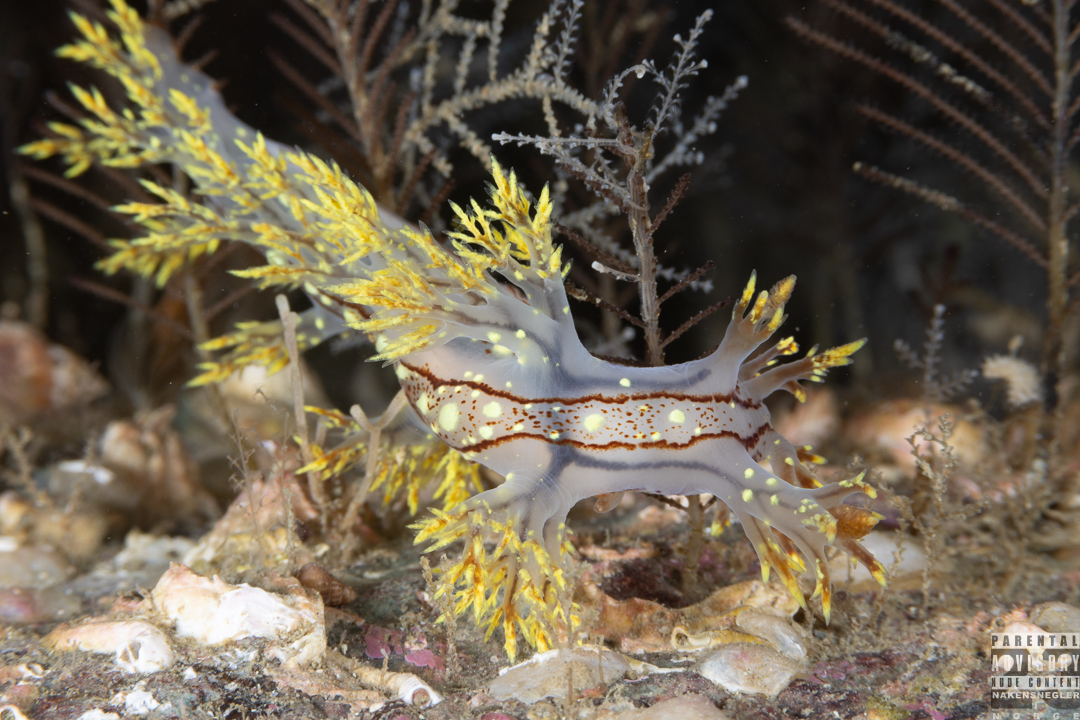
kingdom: Animalia
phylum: Mollusca
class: Gastropoda
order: Nudibranchia
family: Dendronotidae
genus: Dendronotus
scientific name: Dendronotus yrjargul
